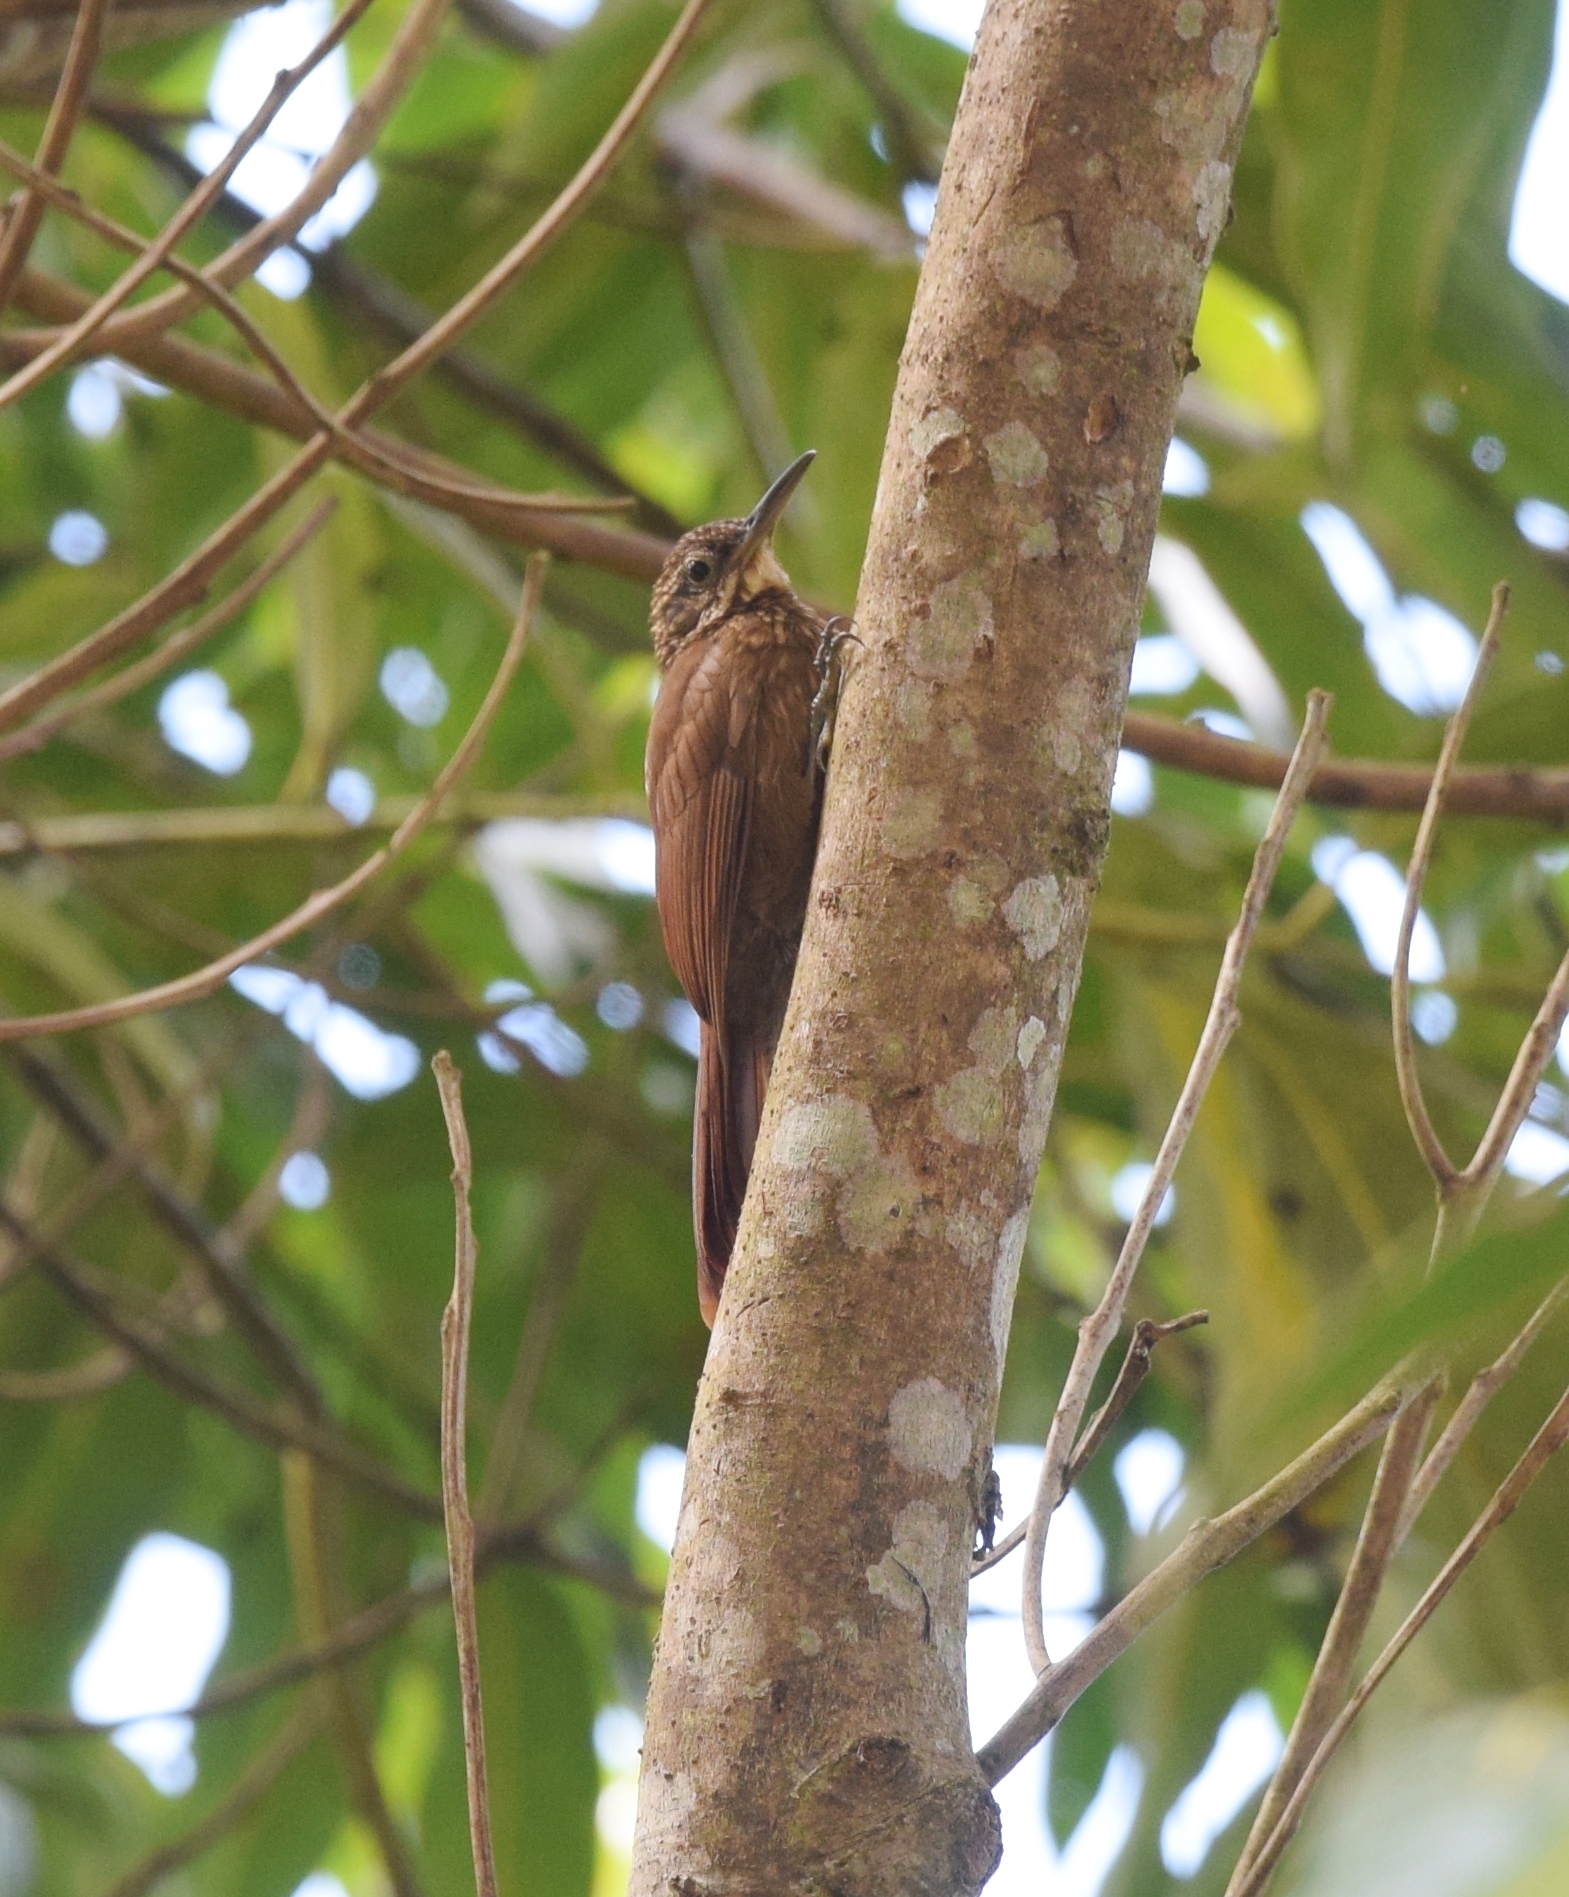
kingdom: Animalia
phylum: Chordata
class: Aves
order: Passeriformes
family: Furnariidae
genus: Xiphorhynchus
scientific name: Xiphorhynchus susurrans
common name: Cocoa woodcreeper
